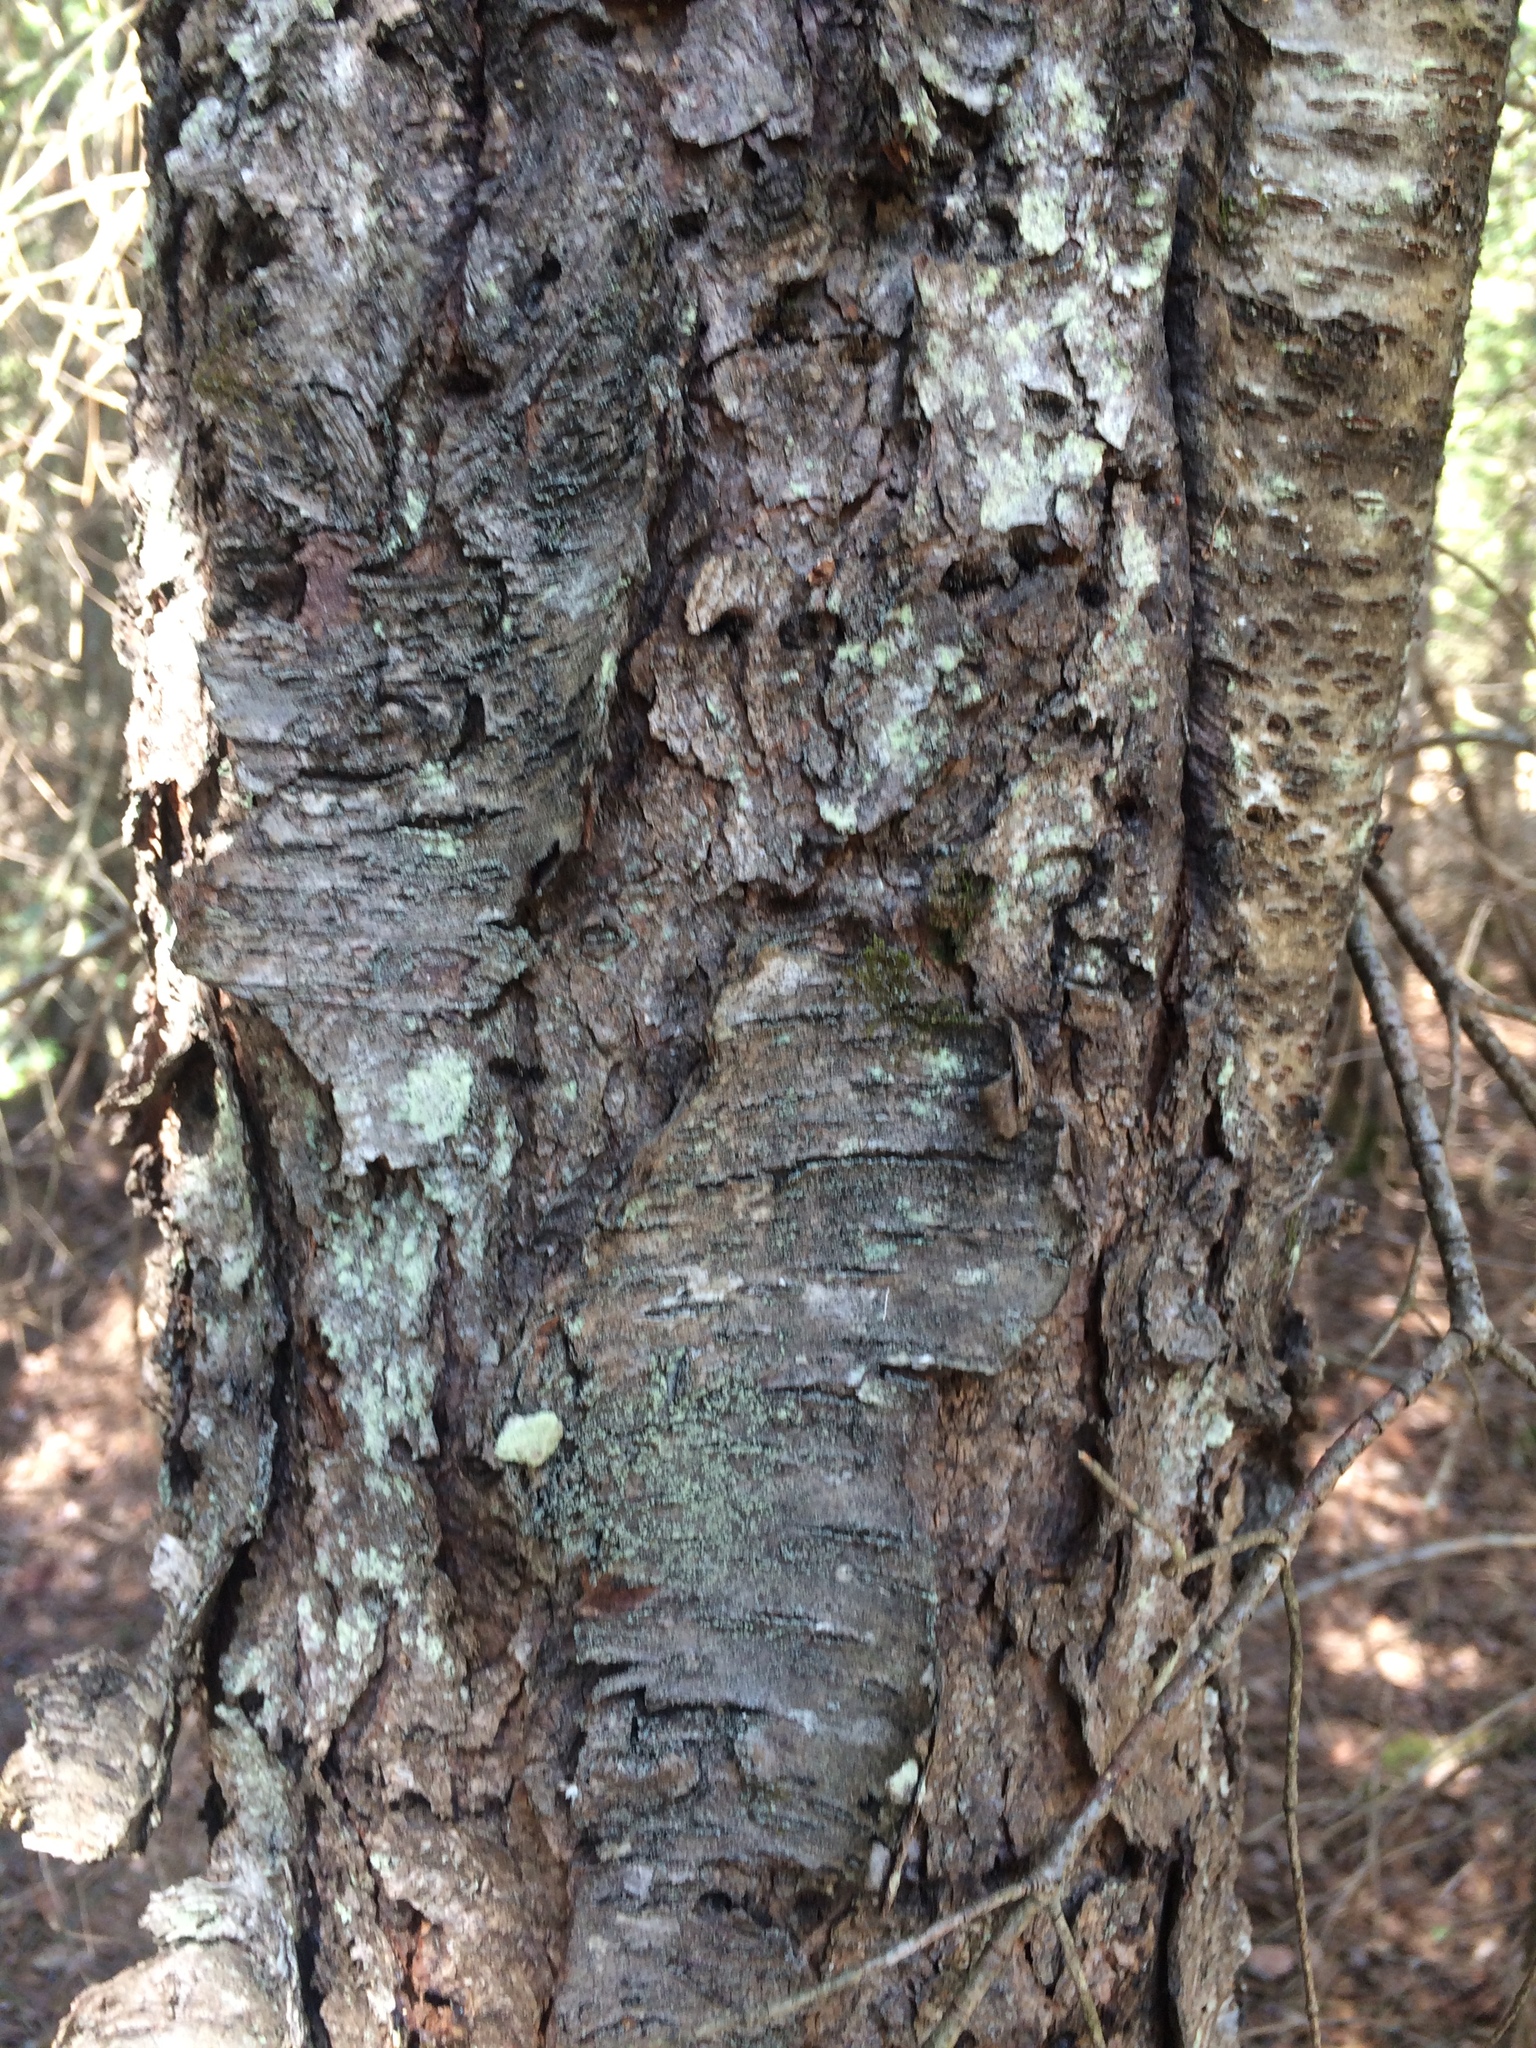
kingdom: Plantae
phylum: Tracheophyta
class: Magnoliopsida
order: Rosales
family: Rosaceae
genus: Prunus
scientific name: Prunus serotina
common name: Black cherry
